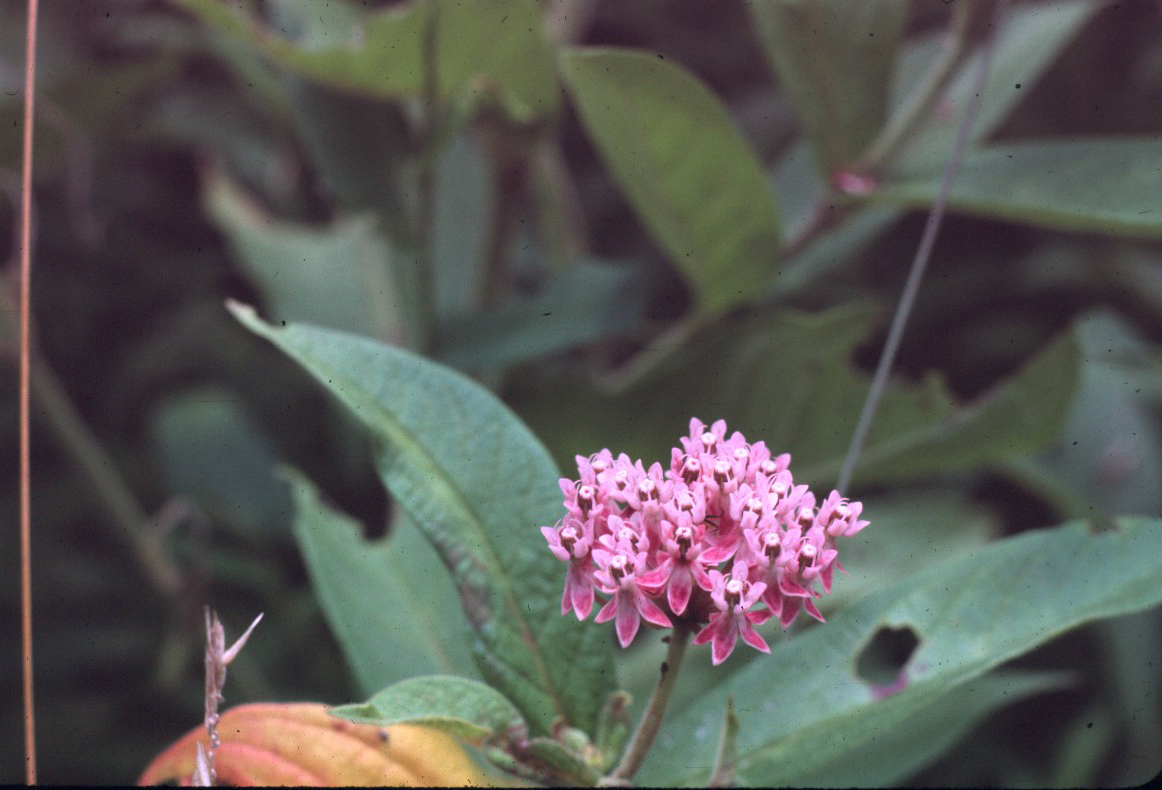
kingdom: Plantae
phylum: Tracheophyta
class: Magnoliopsida
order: Gentianales
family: Apocynaceae
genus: Asclepias
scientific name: Asclepias incarnata
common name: Swamp milkweed
